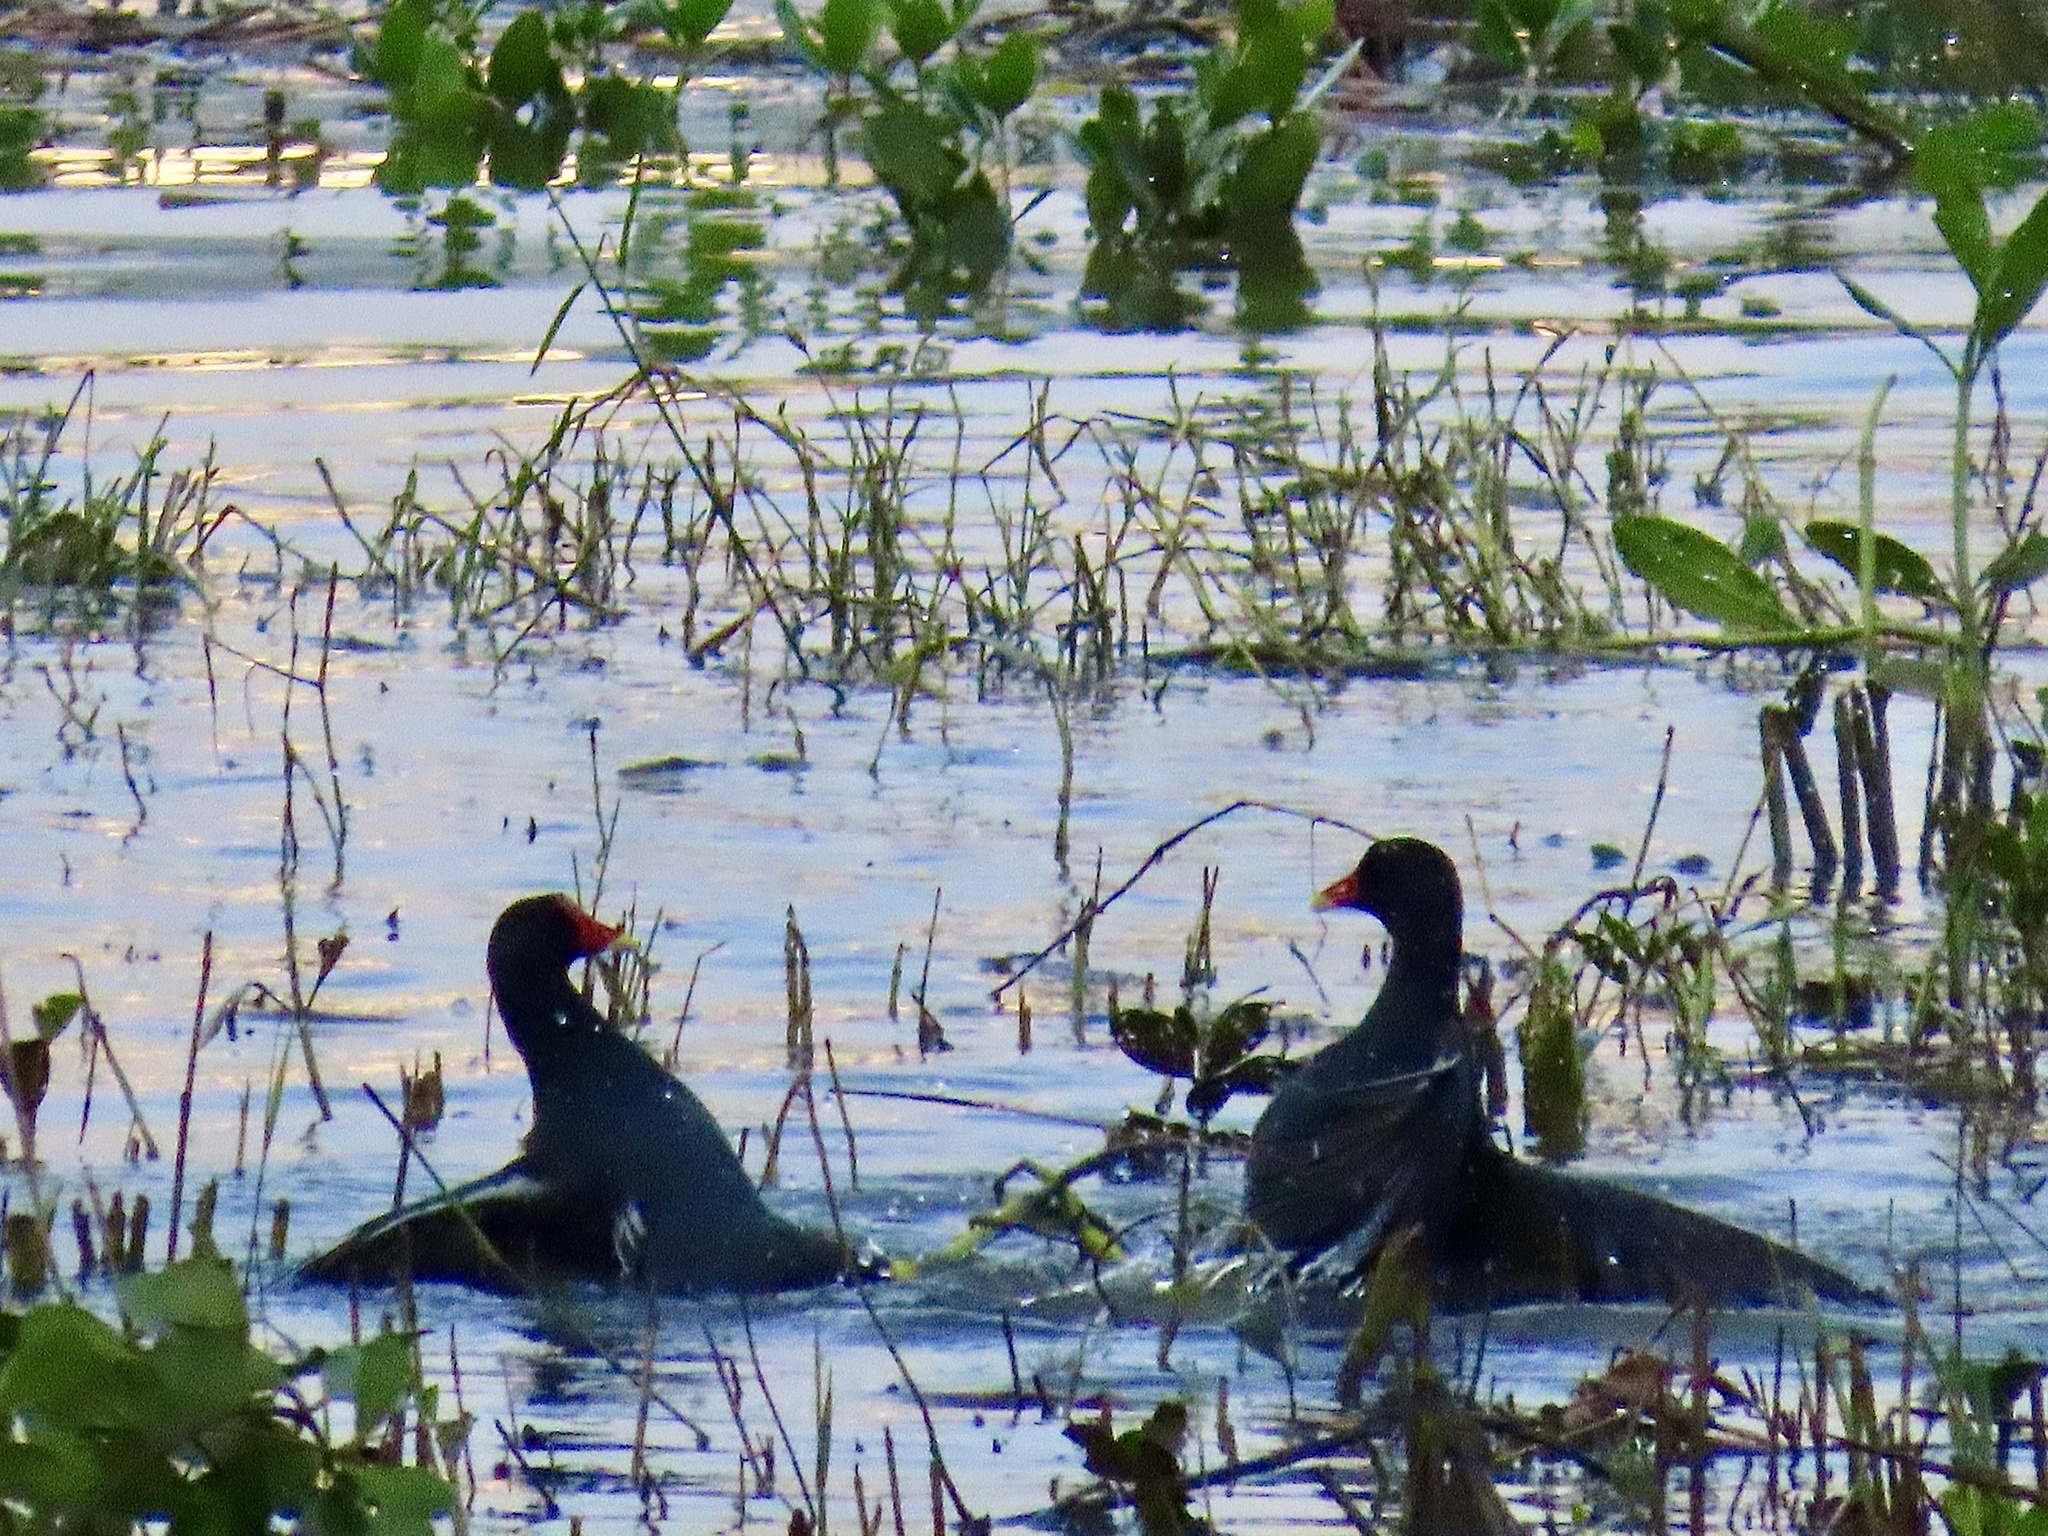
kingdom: Animalia
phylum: Chordata
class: Aves
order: Gruiformes
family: Rallidae
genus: Gallinula
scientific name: Gallinula chloropus
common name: Common moorhen
